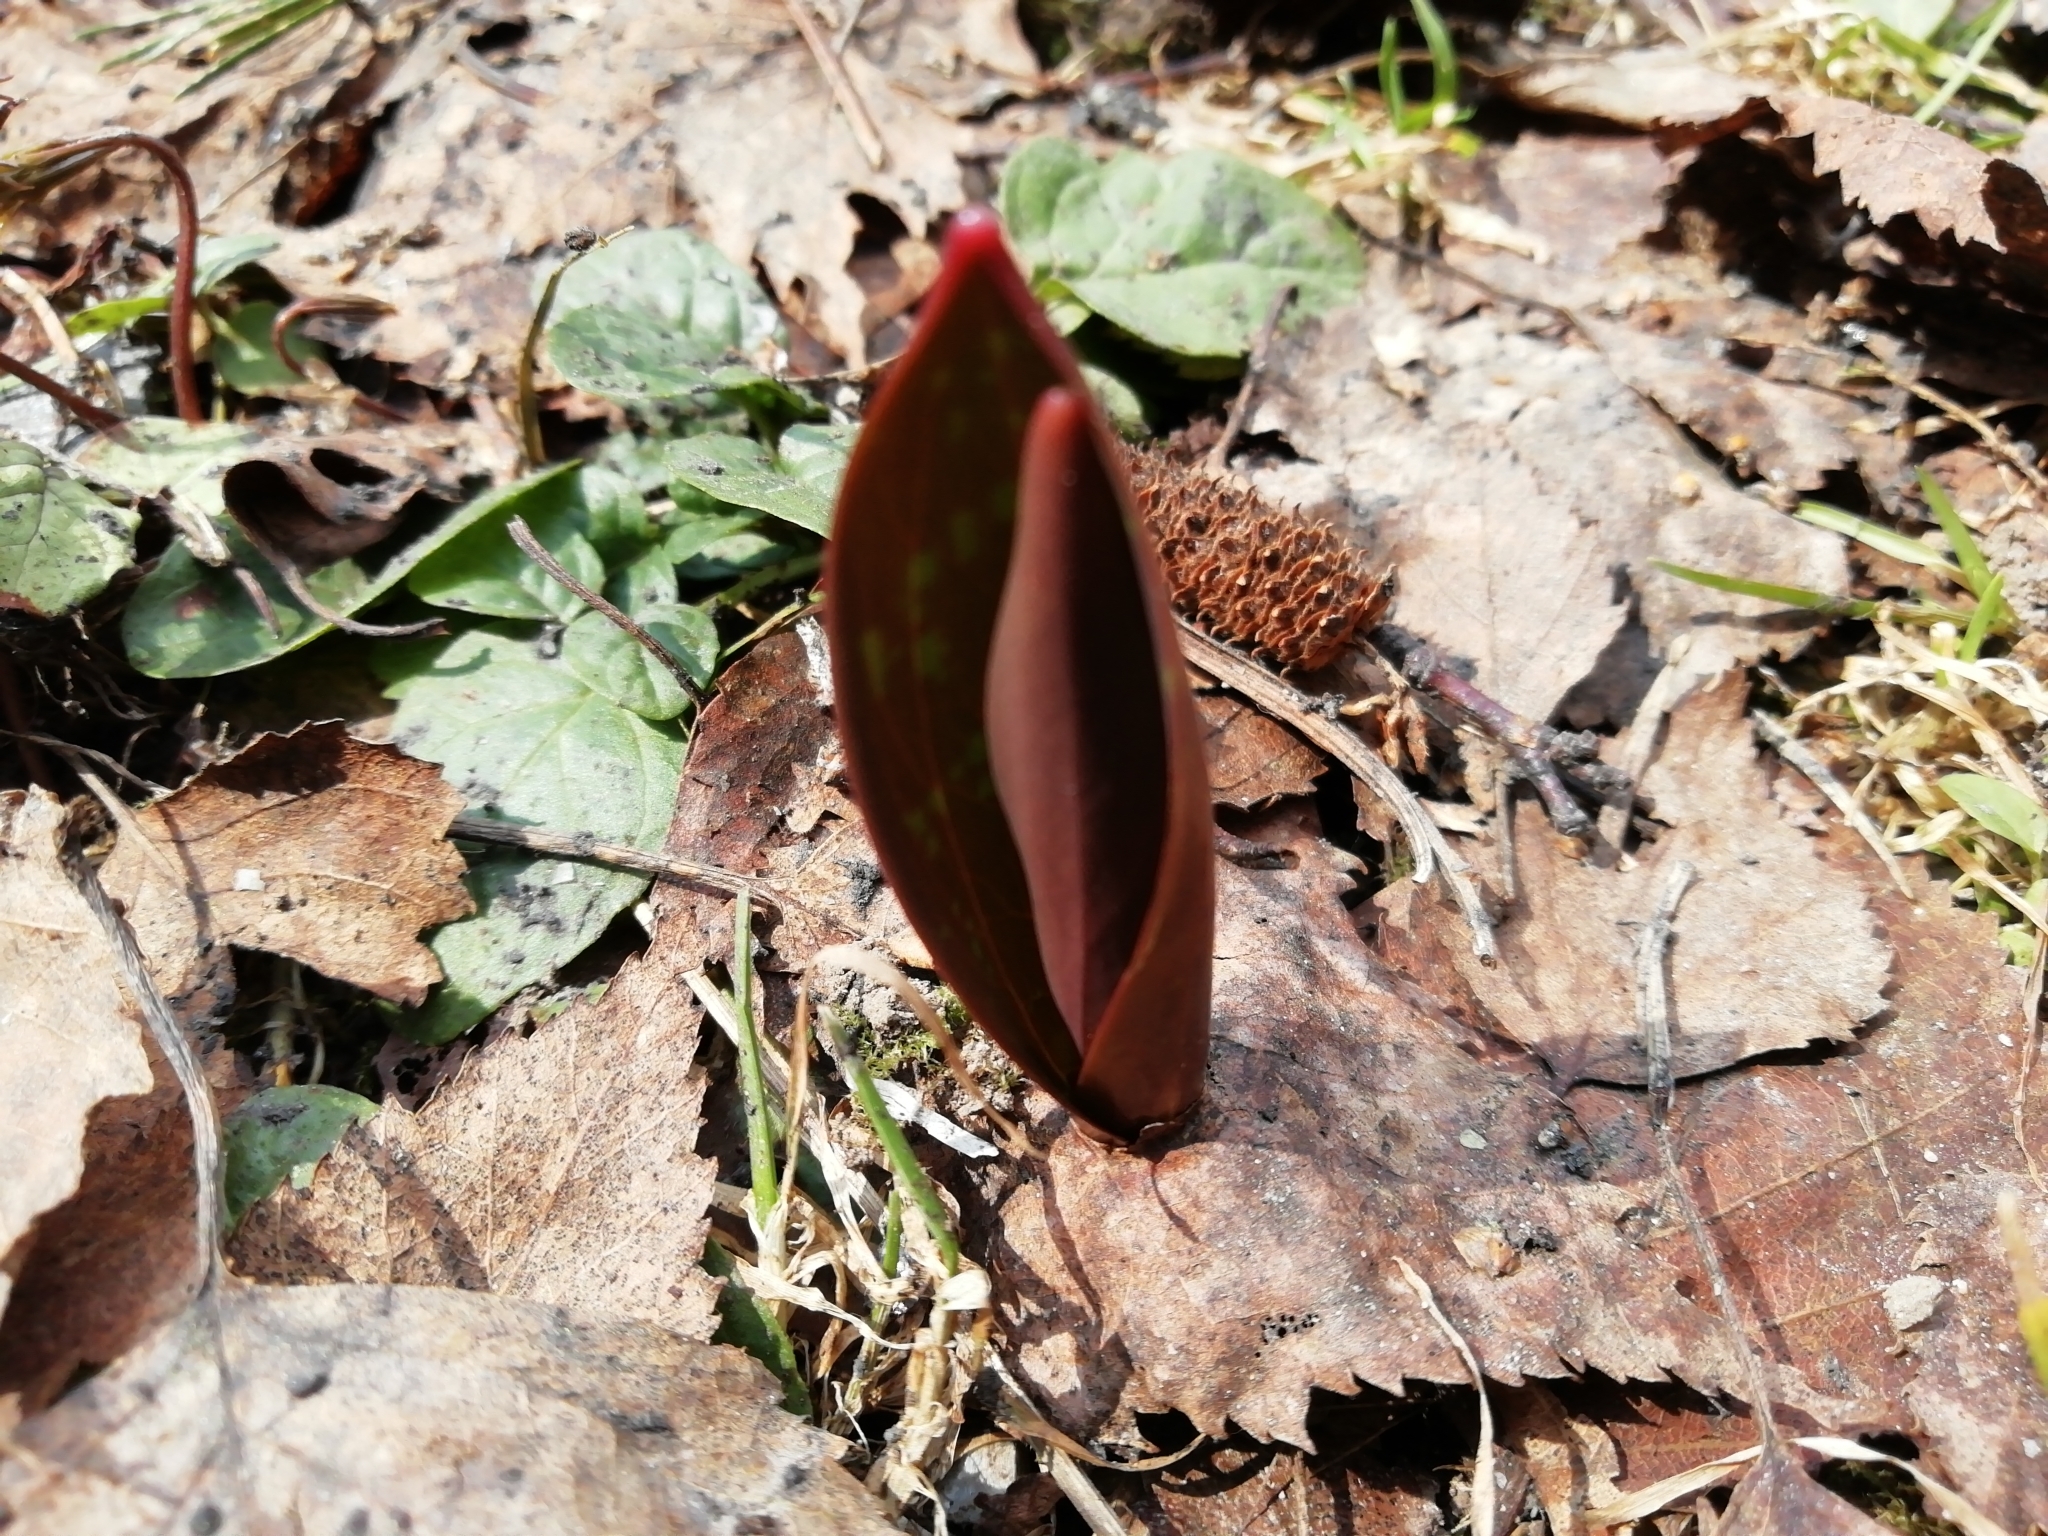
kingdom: Plantae
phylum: Tracheophyta
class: Liliopsida
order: Liliales
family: Liliaceae
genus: Erythronium
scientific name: Erythronium sibiricum
